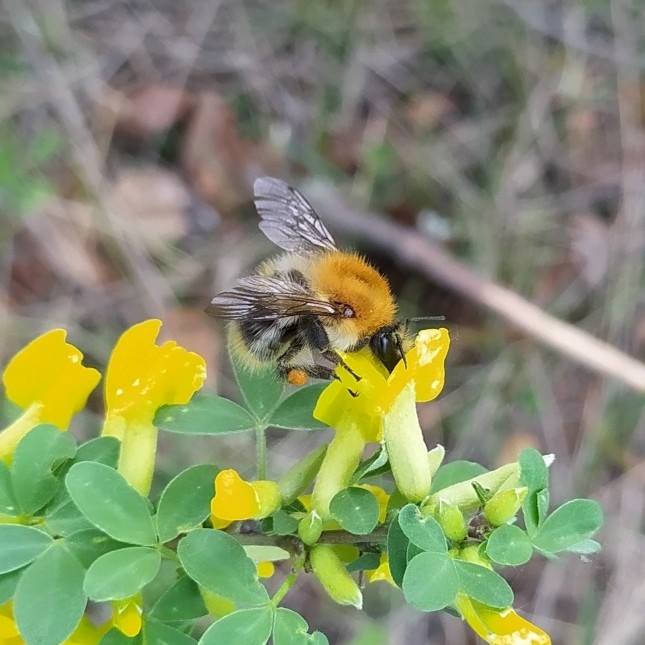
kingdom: Animalia
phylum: Arthropoda
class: Insecta
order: Hymenoptera
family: Apidae
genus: Bombus
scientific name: Bombus pascuorum
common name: Common carder bee
